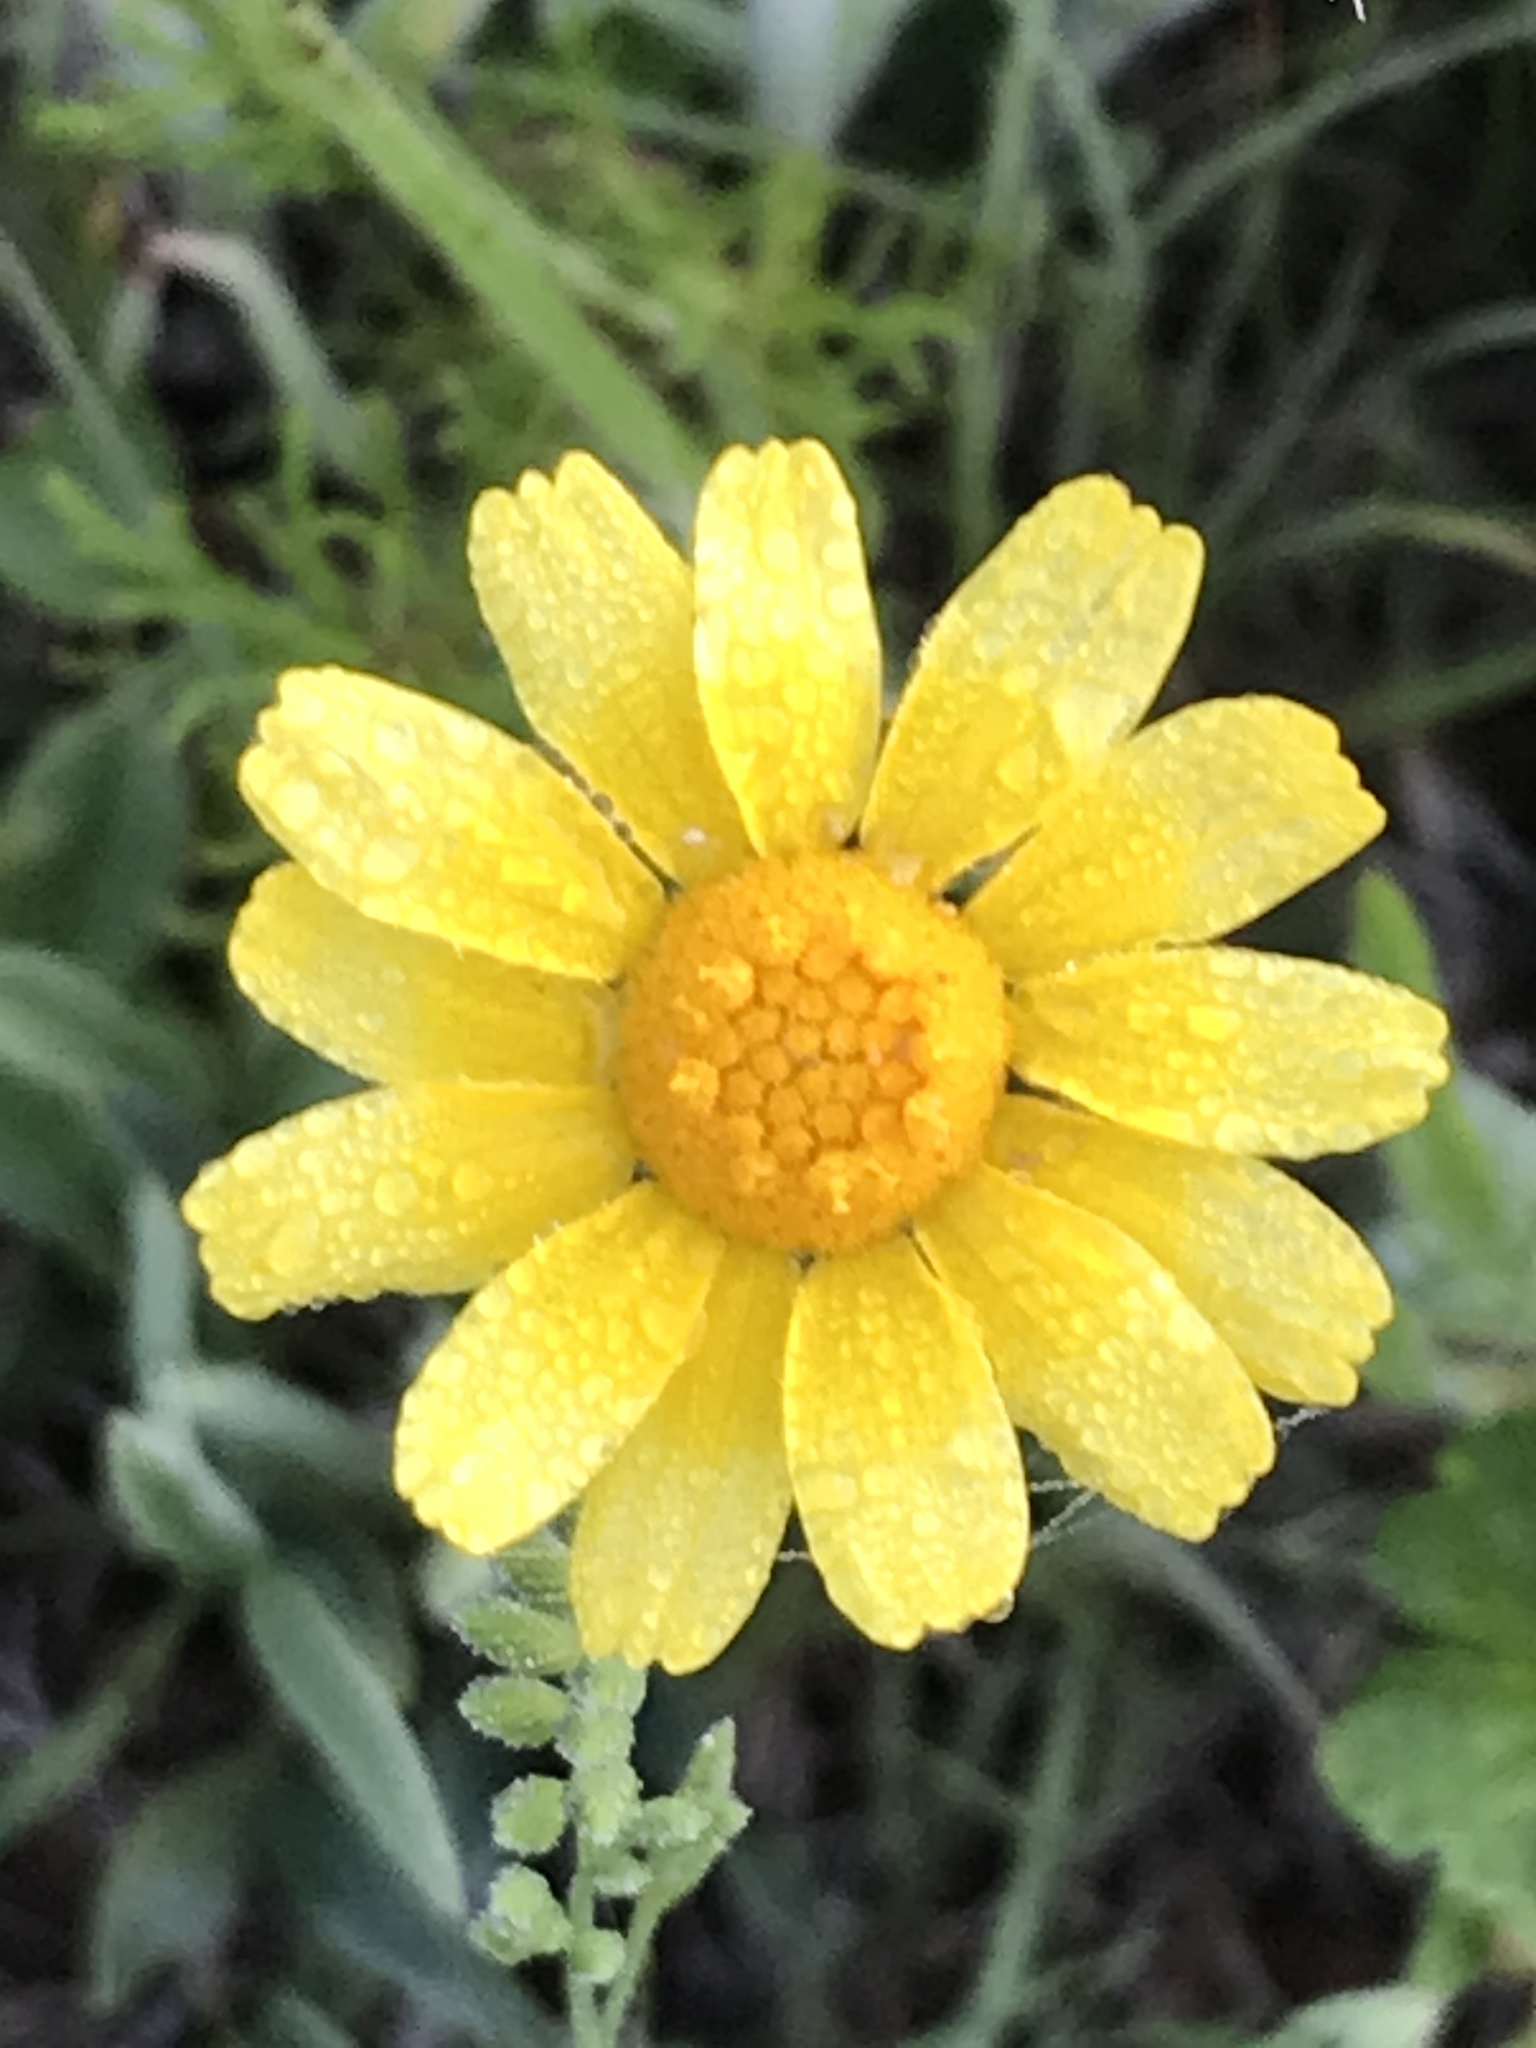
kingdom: Plantae
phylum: Tracheophyta
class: Magnoliopsida
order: Asterales
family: Asteraceae
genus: Tetraneuris
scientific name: Tetraneuris linearifolia
